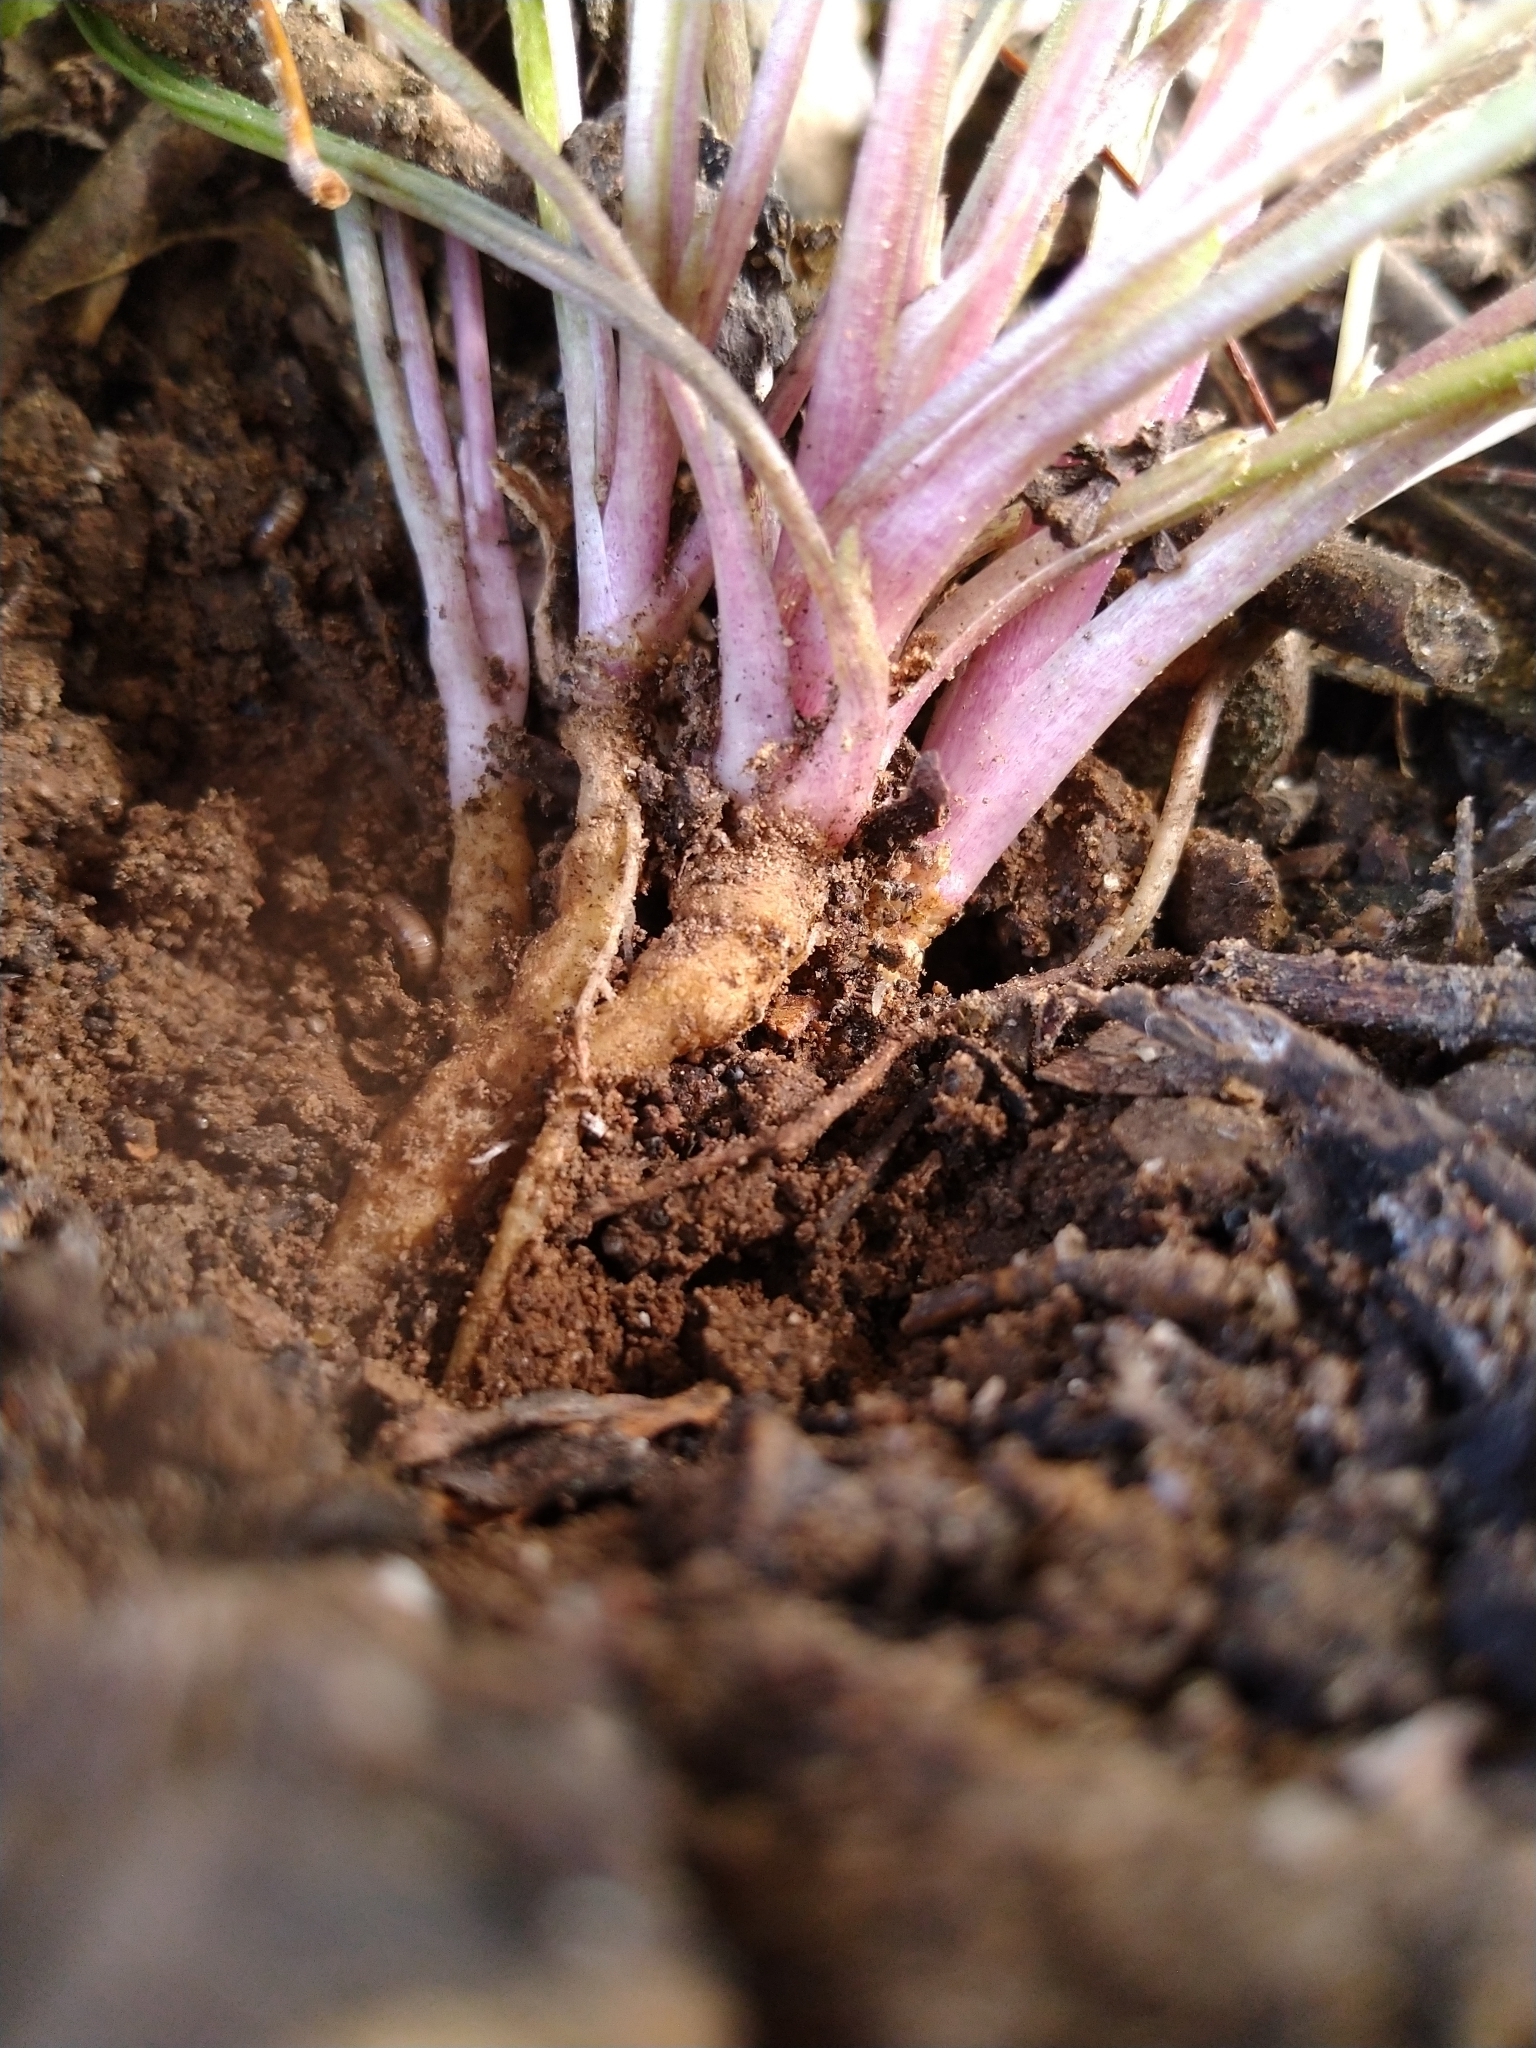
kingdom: Plantae
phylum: Tracheophyta
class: Magnoliopsida
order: Malpighiales
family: Violaceae
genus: Viola
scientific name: Viola
